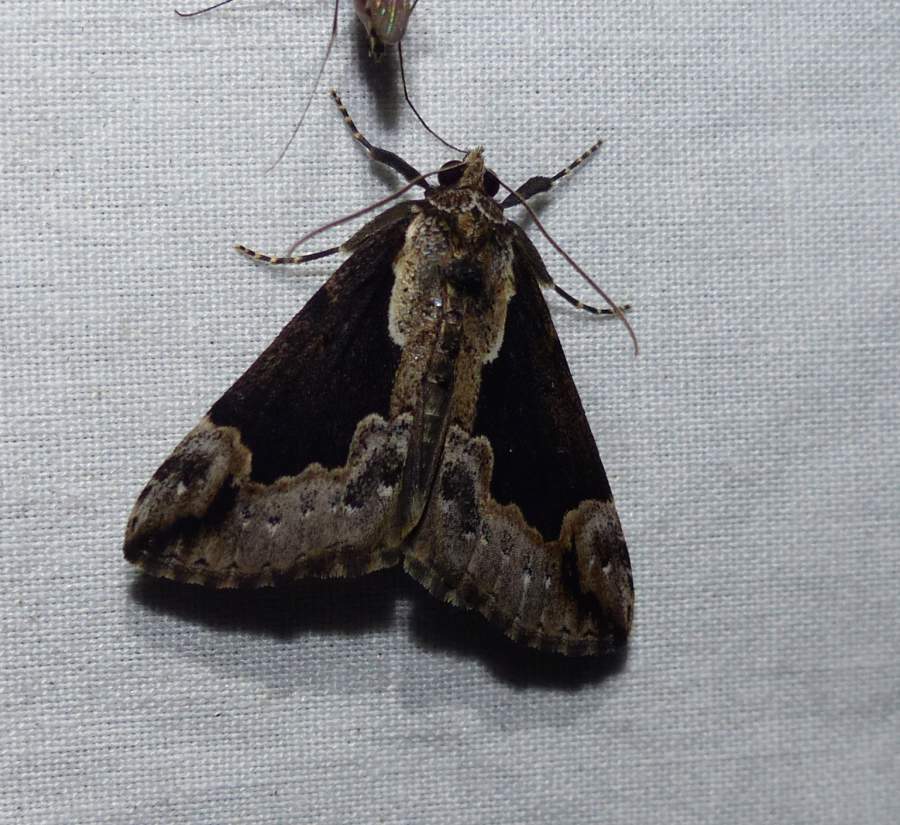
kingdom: Animalia
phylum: Arthropoda
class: Insecta
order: Lepidoptera
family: Erebidae
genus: Hypena
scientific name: Hypena baltimoralis
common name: Baltimore snout
